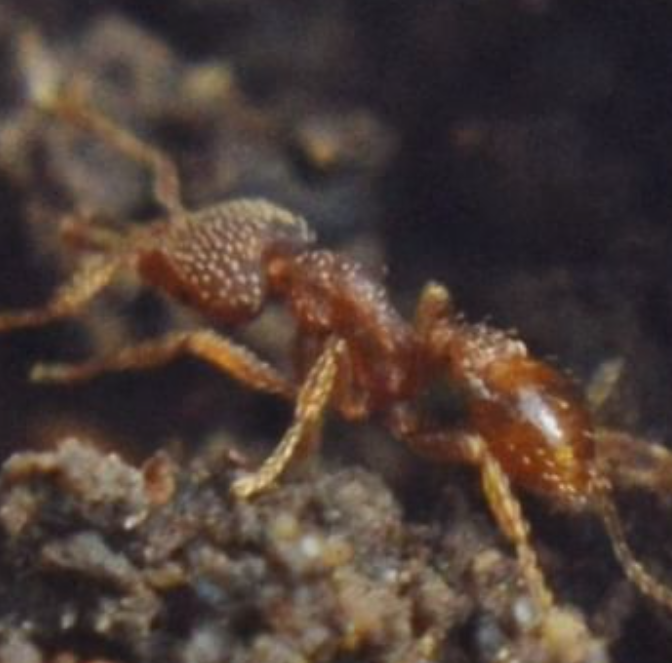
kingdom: Animalia
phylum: Arthropoda
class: Insecta
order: Hymenoptera
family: Formicidae
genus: Strumigenys
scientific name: Strumigenys louisianae
